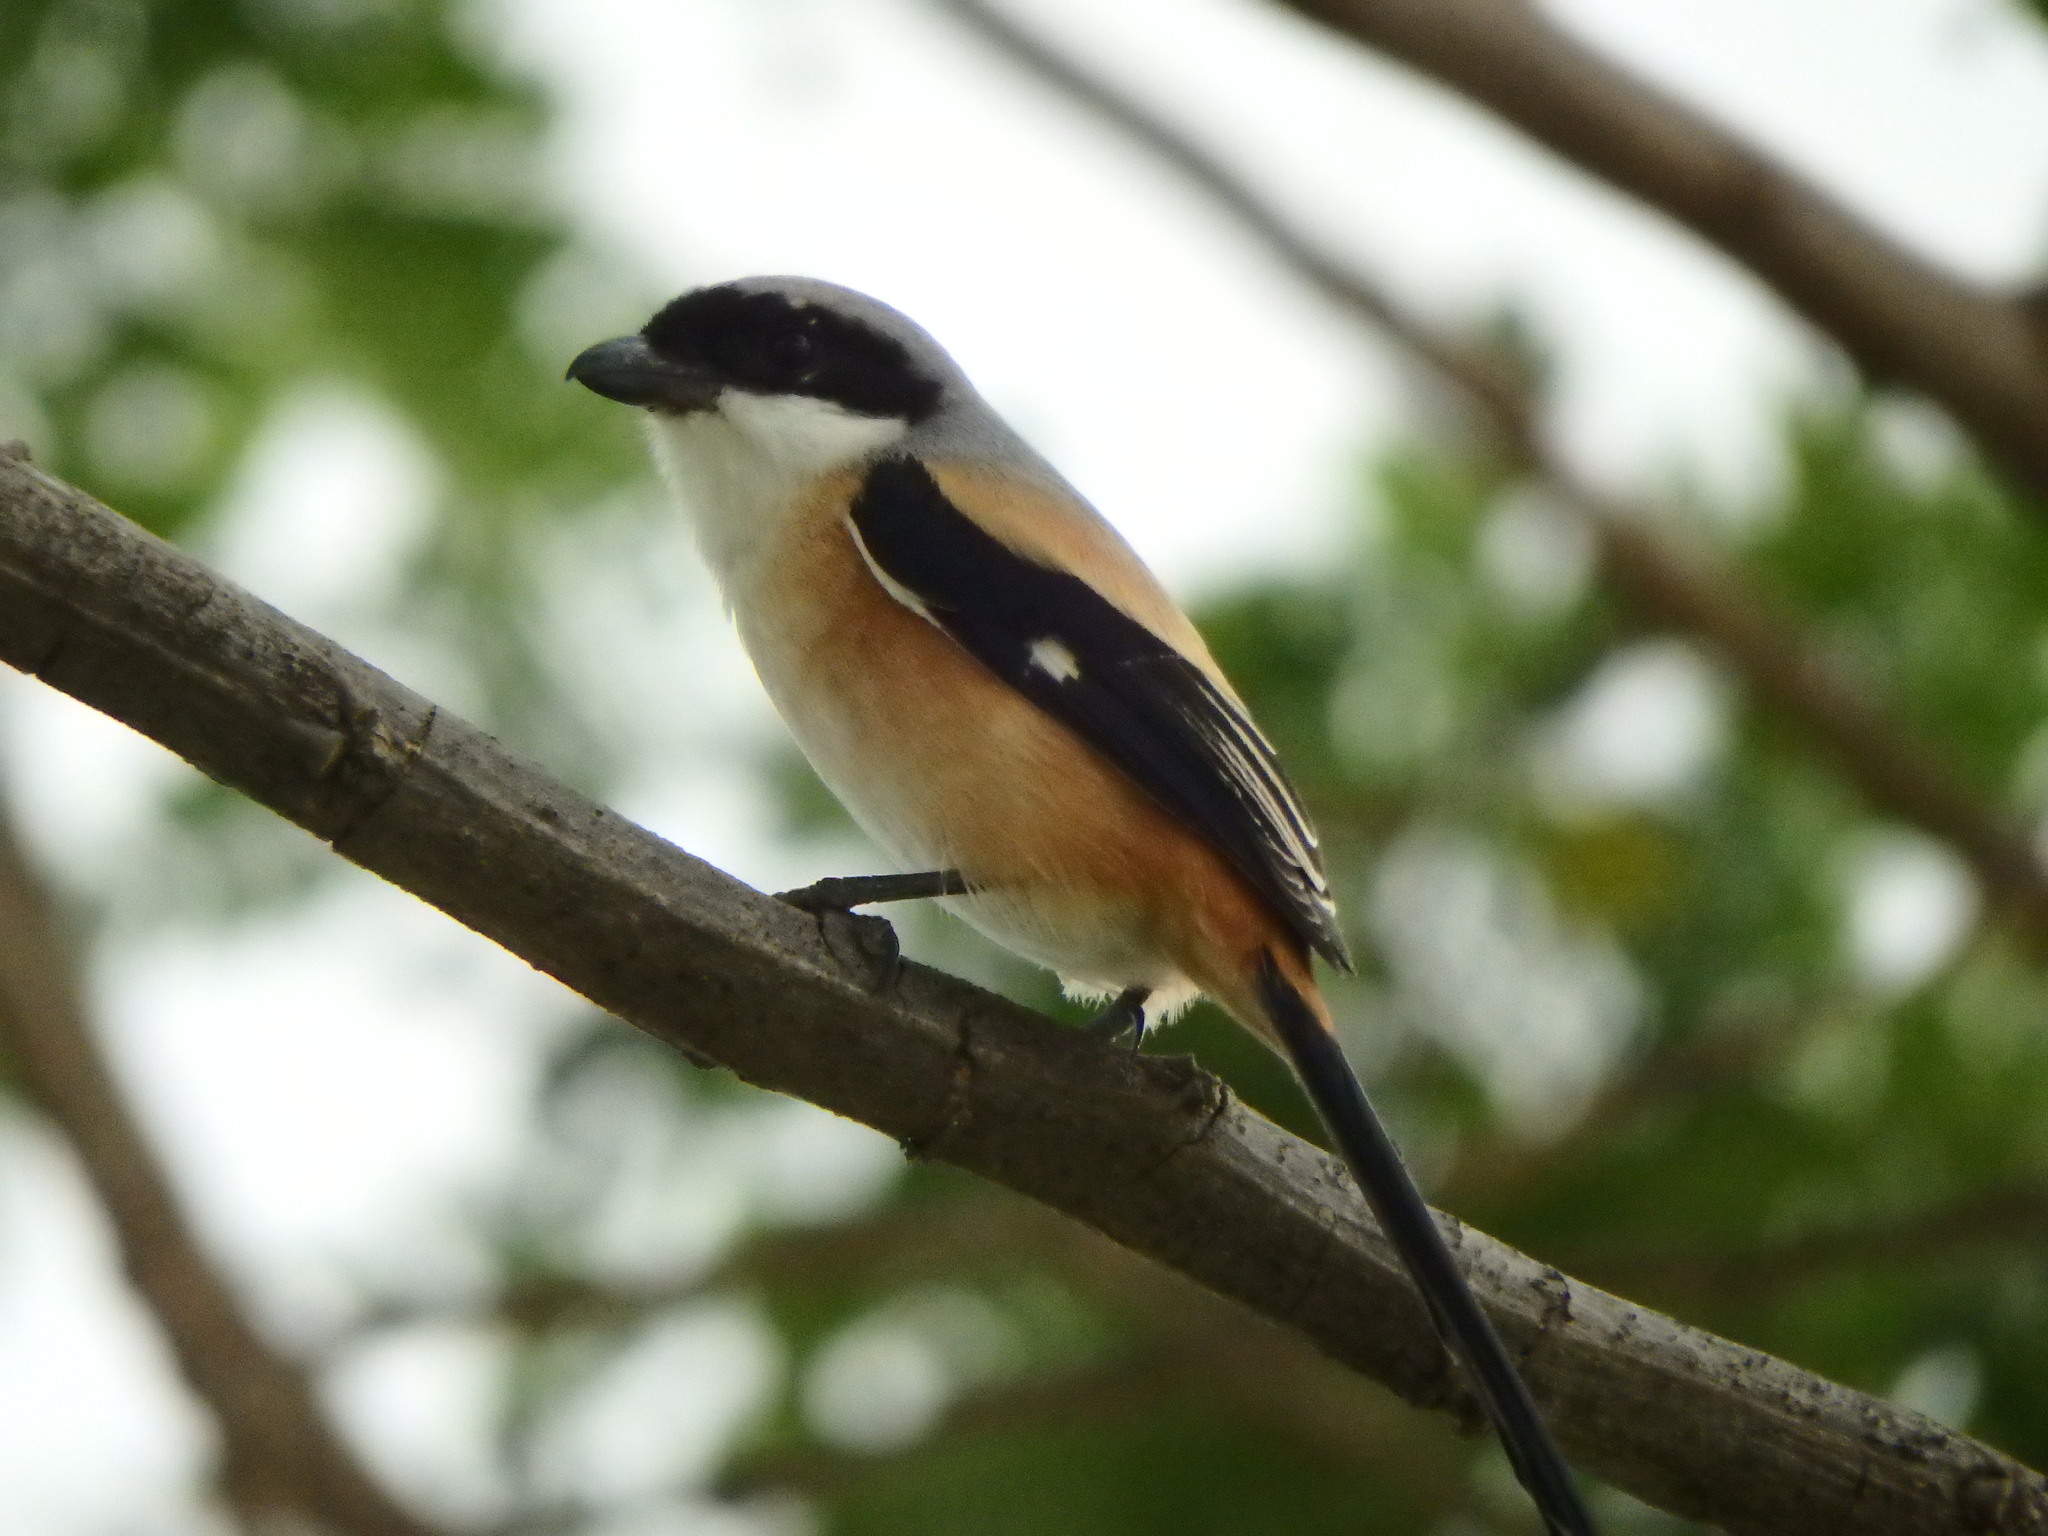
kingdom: Animalia
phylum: Chordata
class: Aves
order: Passeriformes
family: Laniidae
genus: Lanius
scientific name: Lanius schach
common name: Long-tailed shrike
